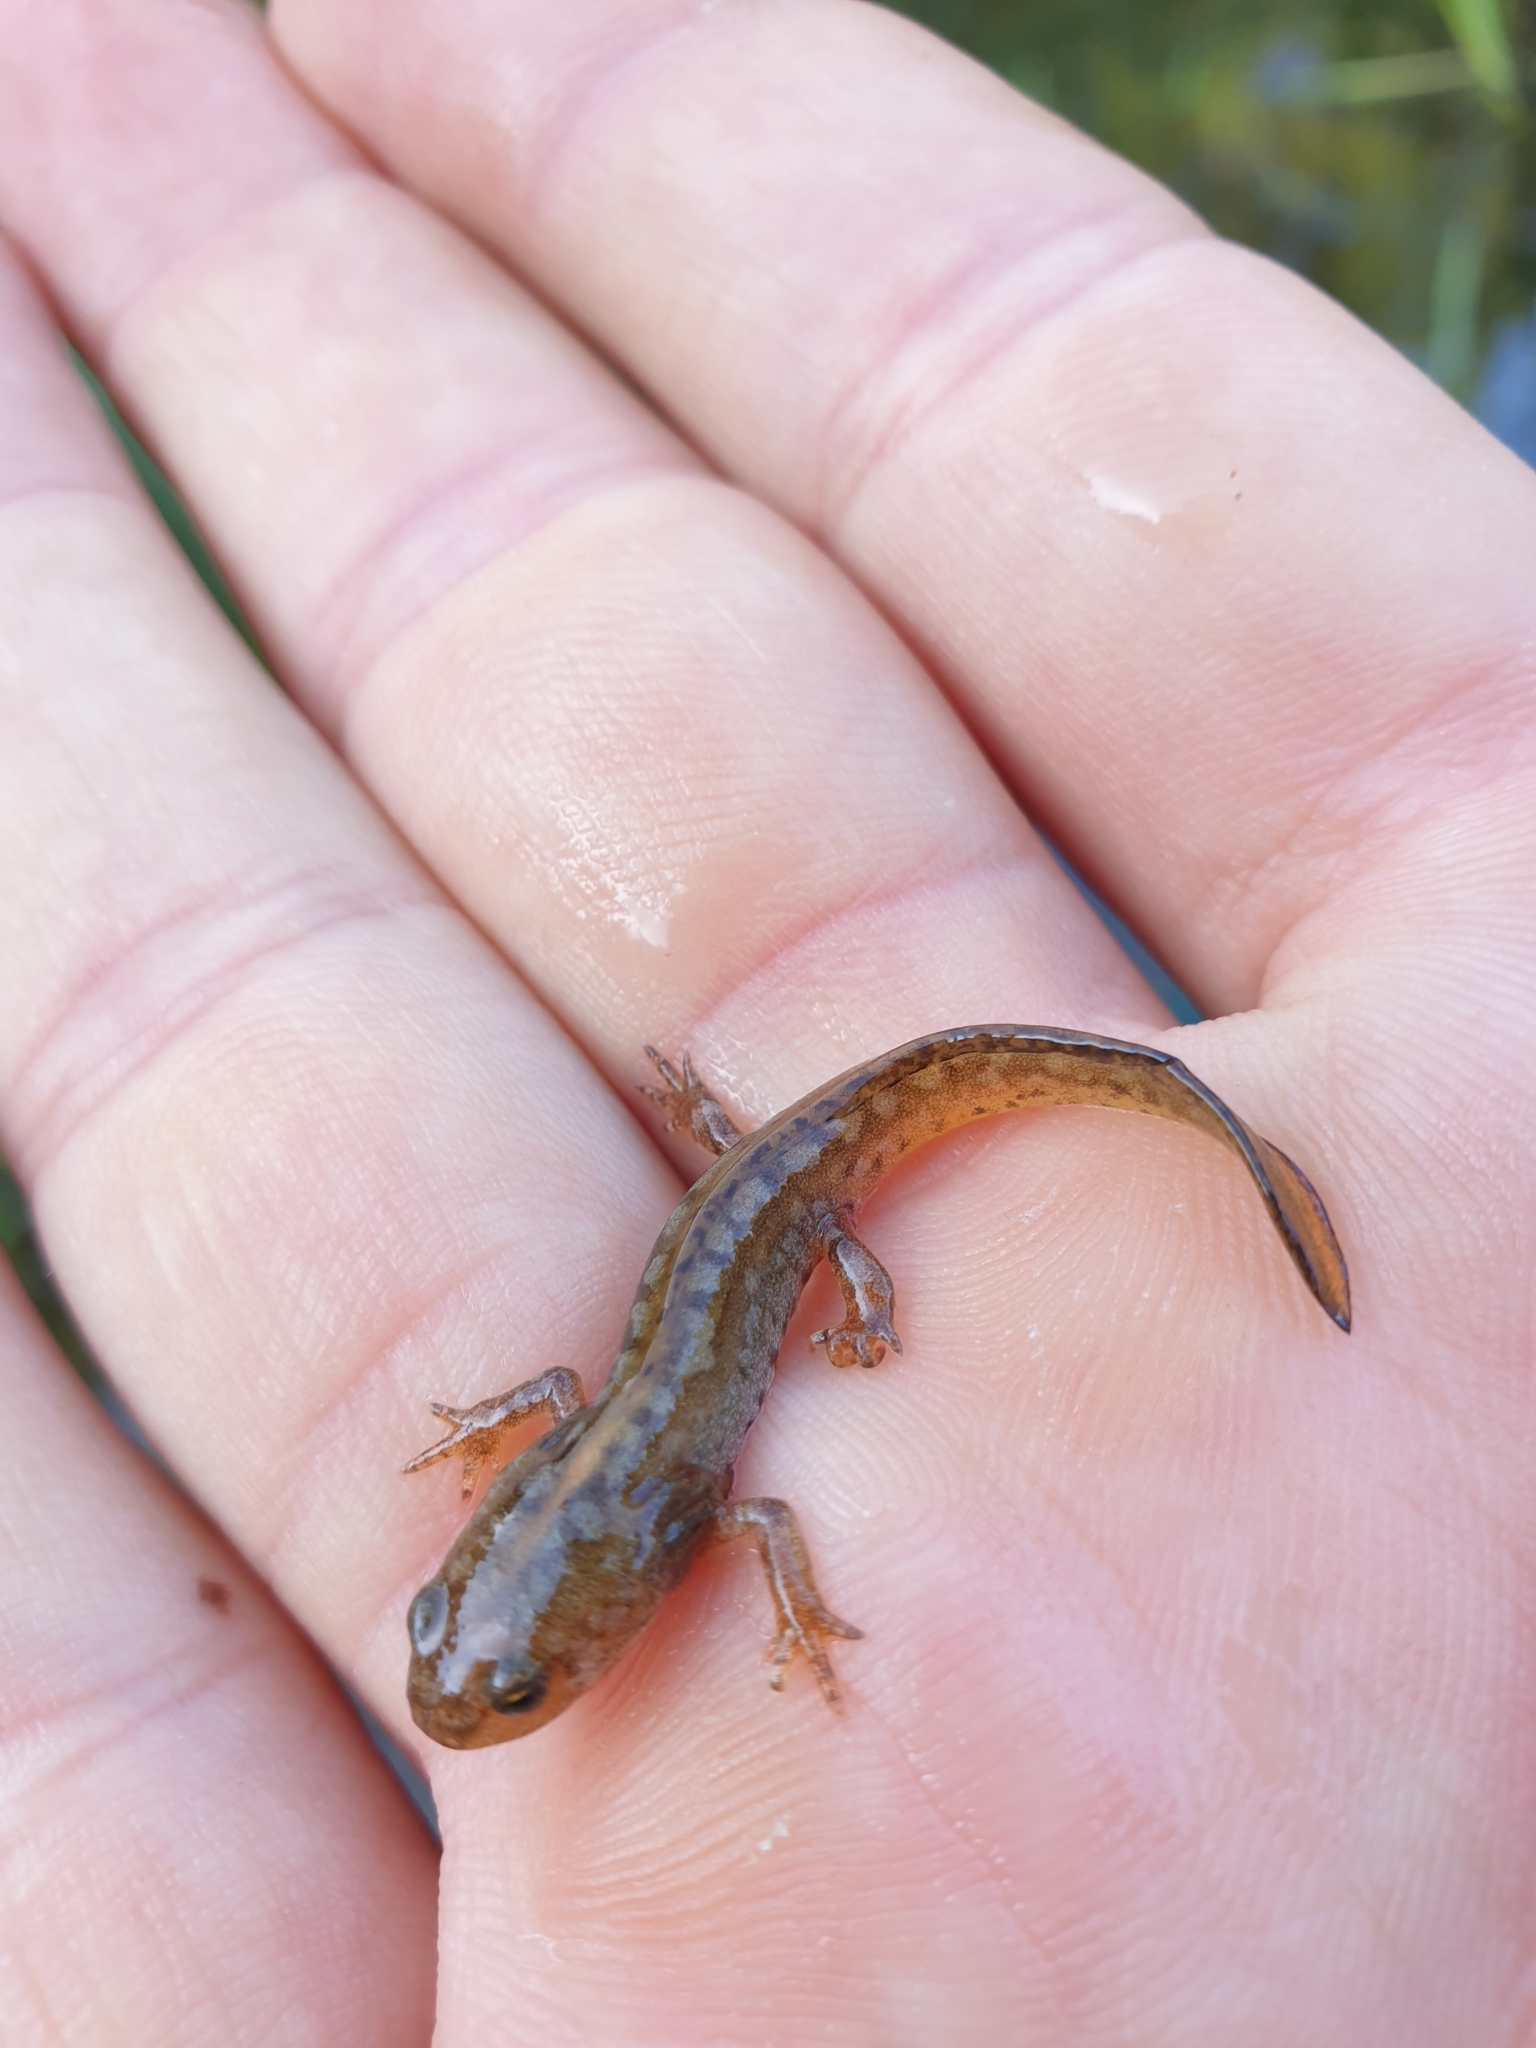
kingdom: Animalia
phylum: Chordata
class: Amphibia
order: Caudata
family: Salamandridae
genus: Ichthyosaura
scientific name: Ichthyosaura alpestris
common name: Alpine newt
